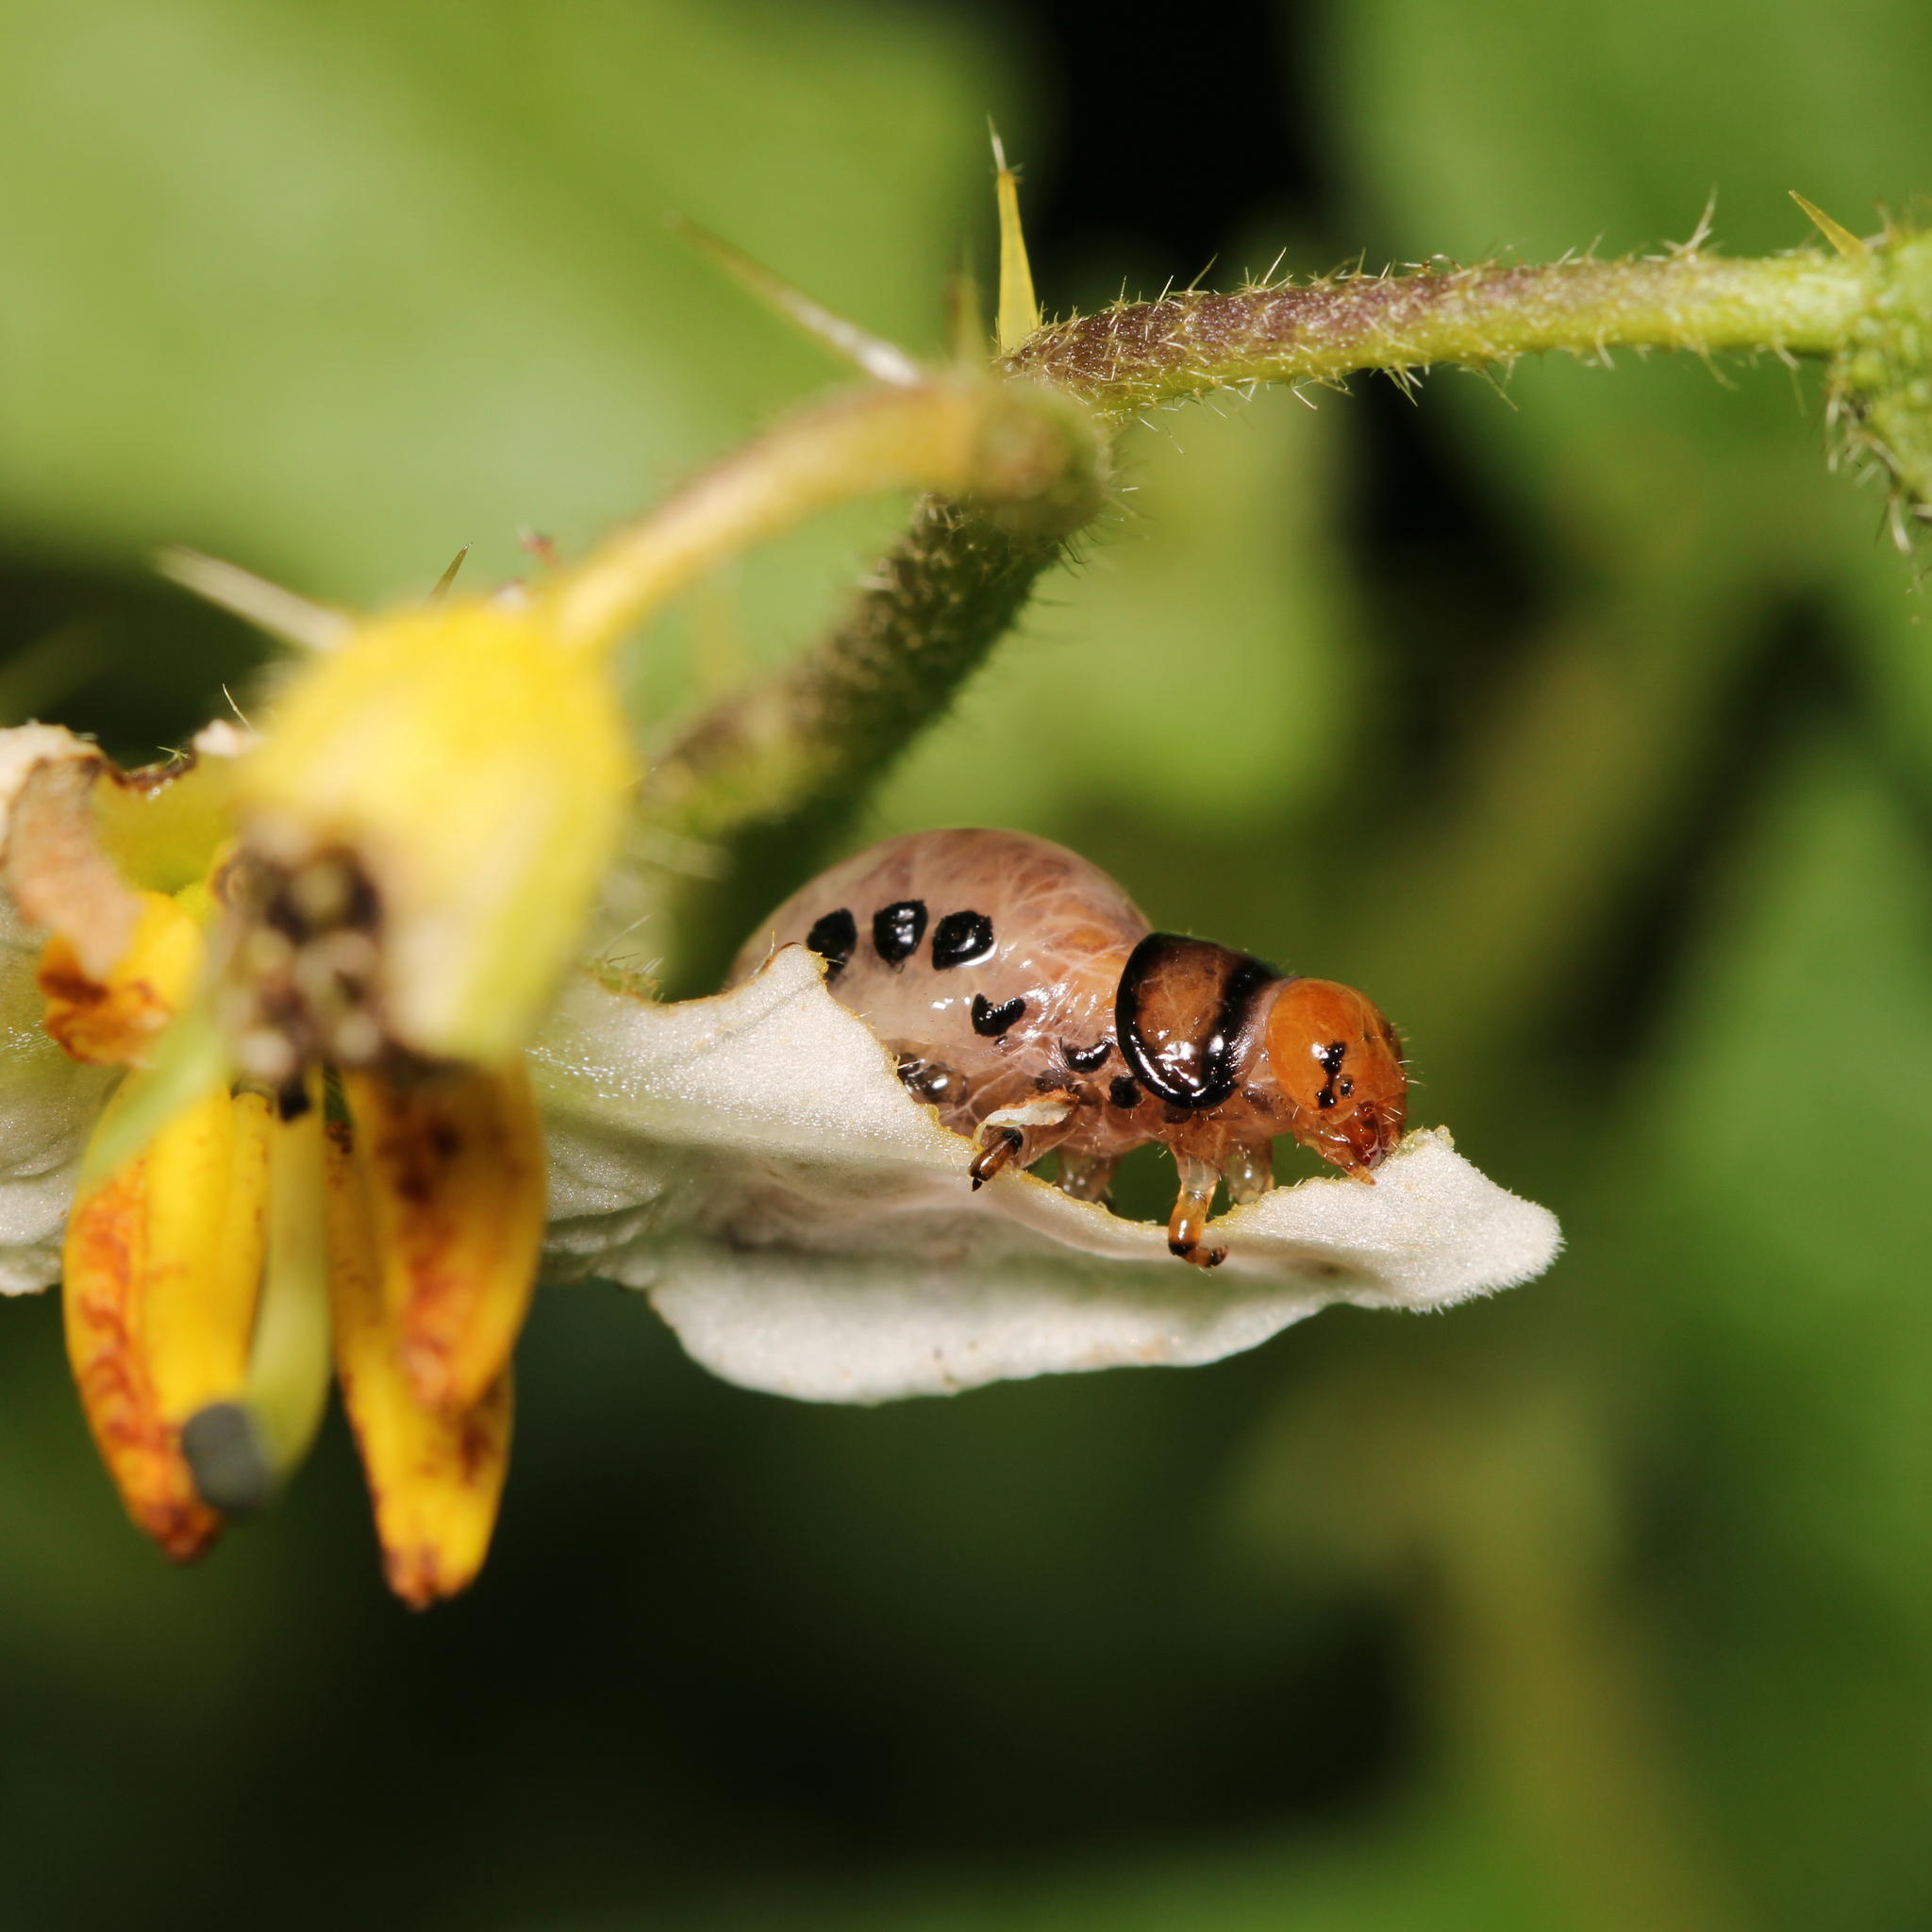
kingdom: Animalia
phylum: Arthropoda
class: Insecta
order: Coleoptera
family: Chrysomelidae
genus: Leptinotarsa
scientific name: Leptinotarsa juncta
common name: False potato beetle
